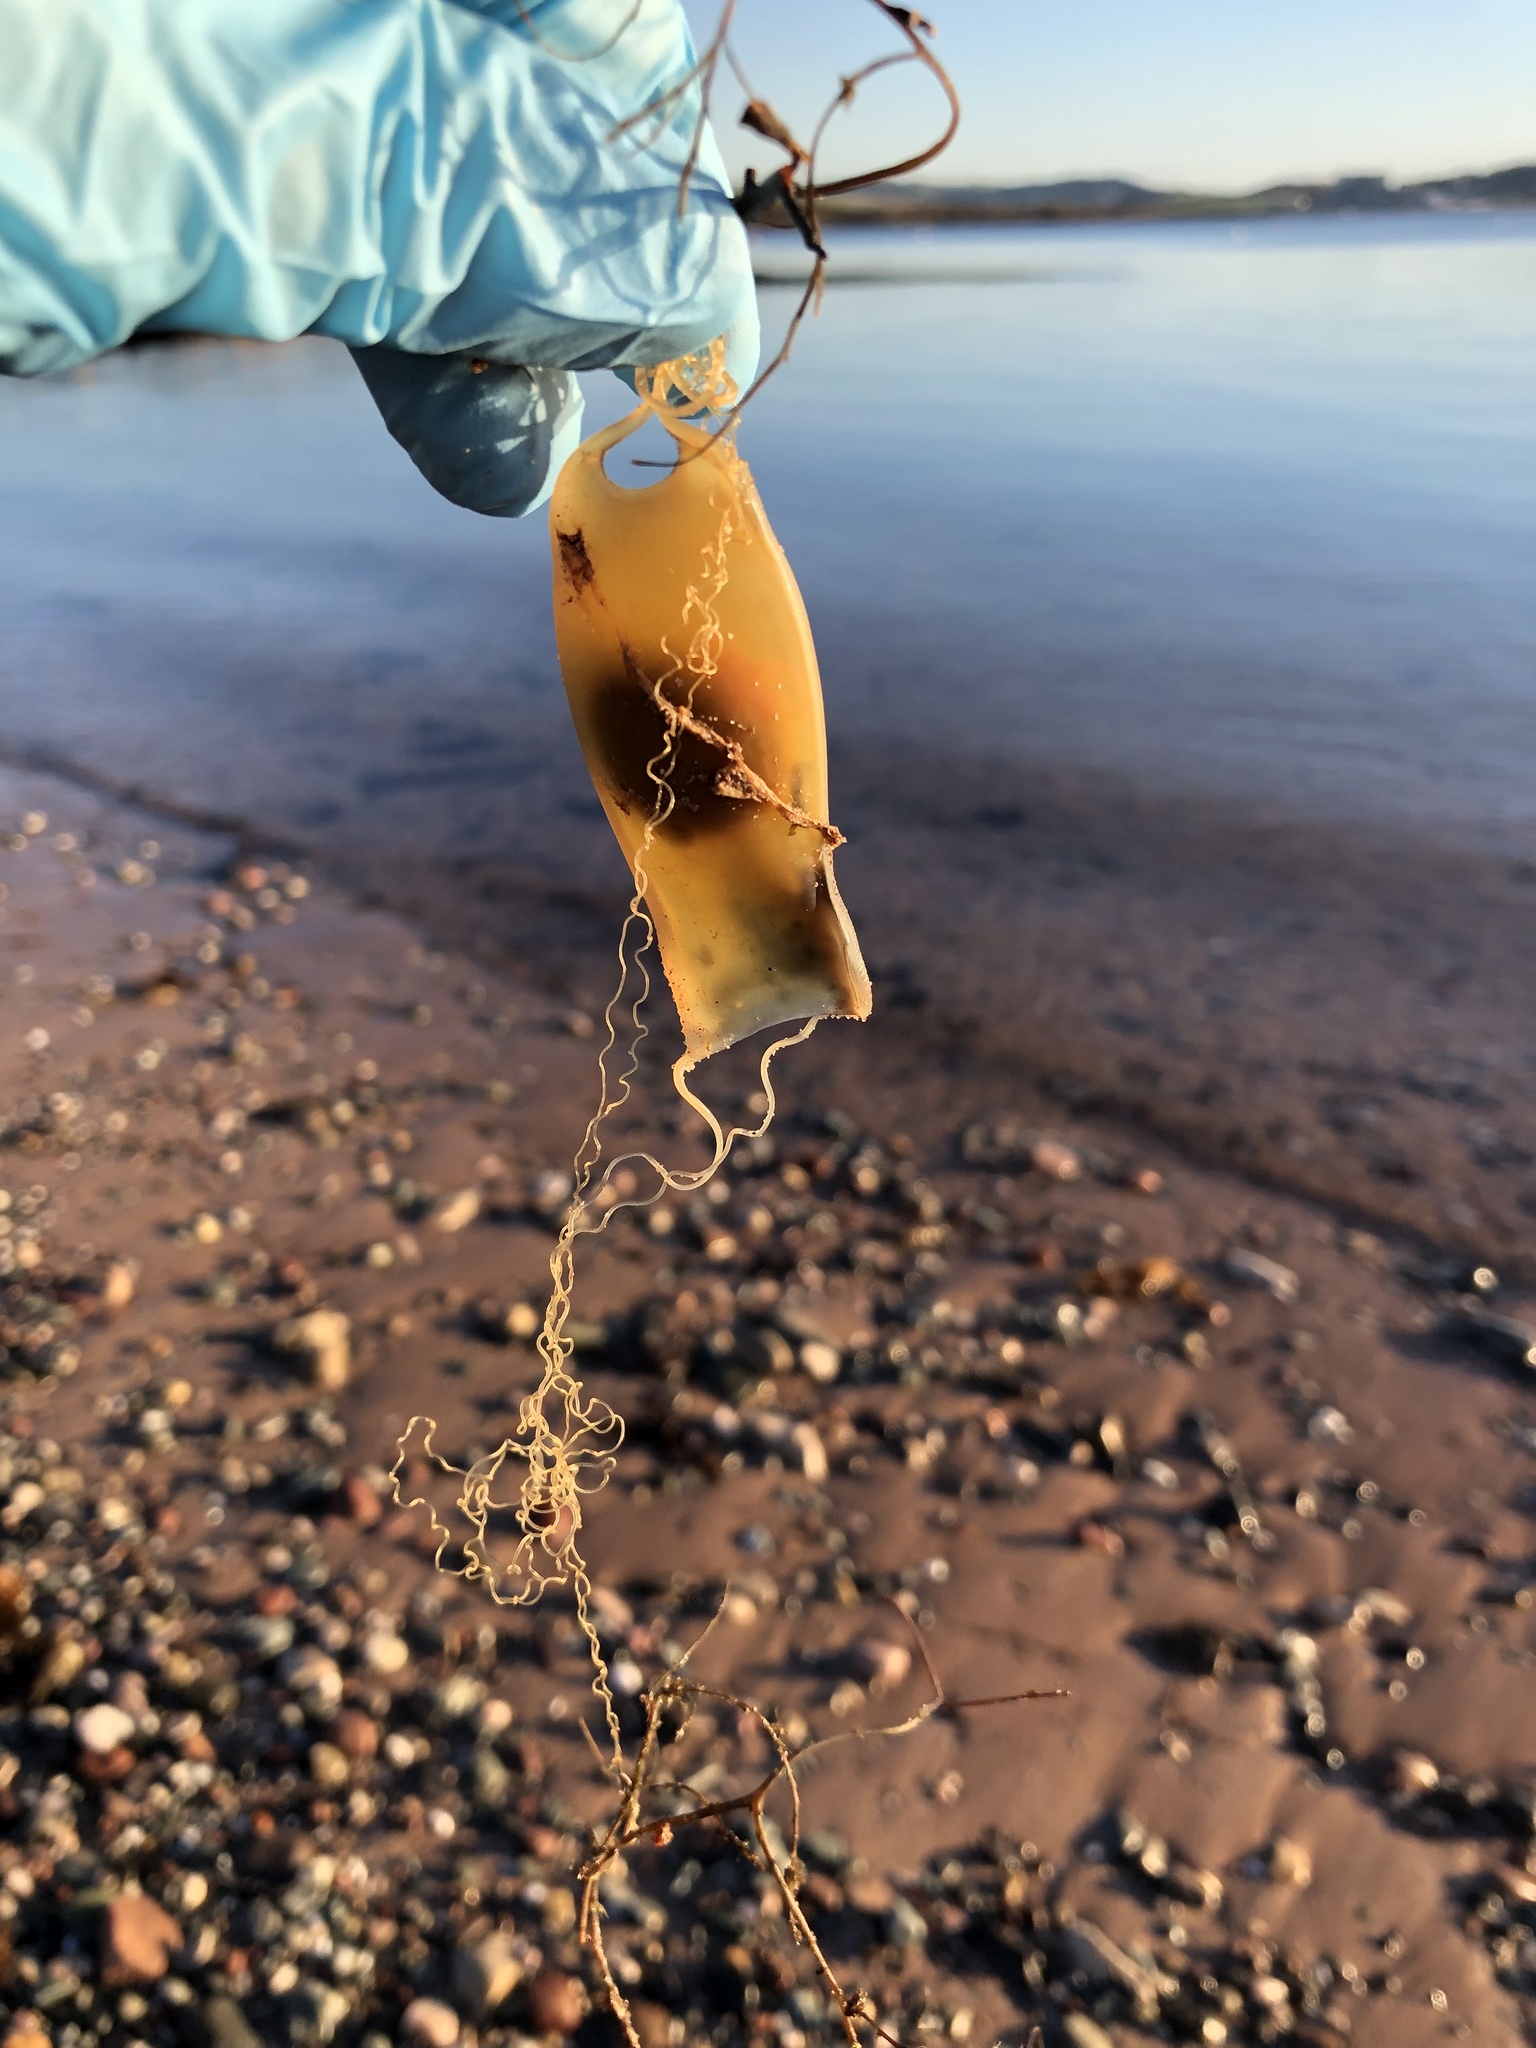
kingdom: Animalia
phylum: Chordata
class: Elasmobranchii
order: Carcharhiniformes
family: Scyliorhinidae
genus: Scyliorhinus
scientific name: Scyliorhinus canicula
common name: Lesser spotted dogfish
